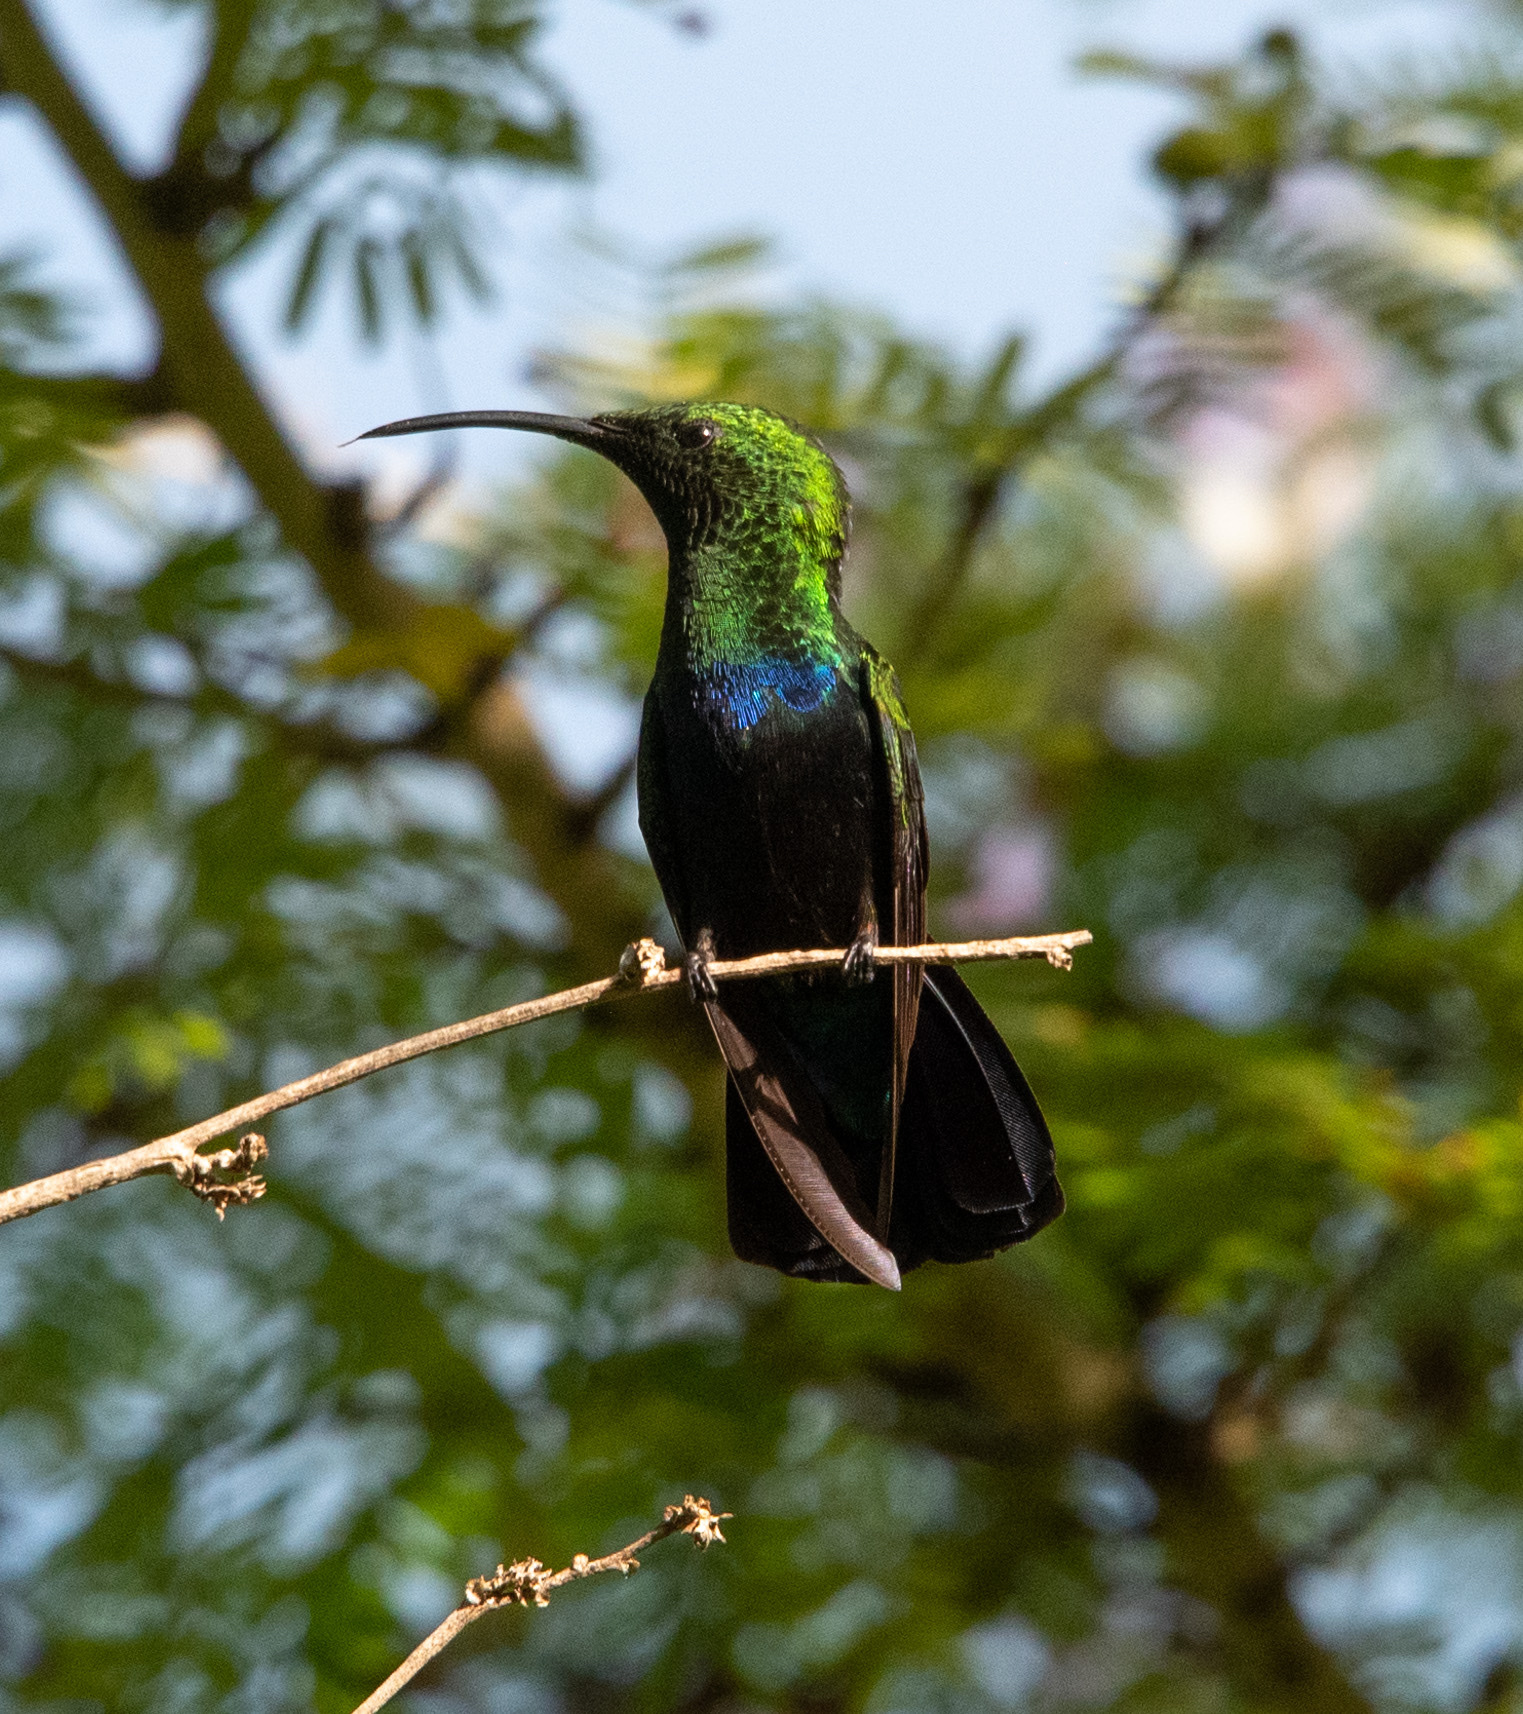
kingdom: Animalia
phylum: Chordata
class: Aves
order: Apodiformes
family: Trochilidae
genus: Eulampis
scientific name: Eulampis holosericeus
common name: Green-throated carib
